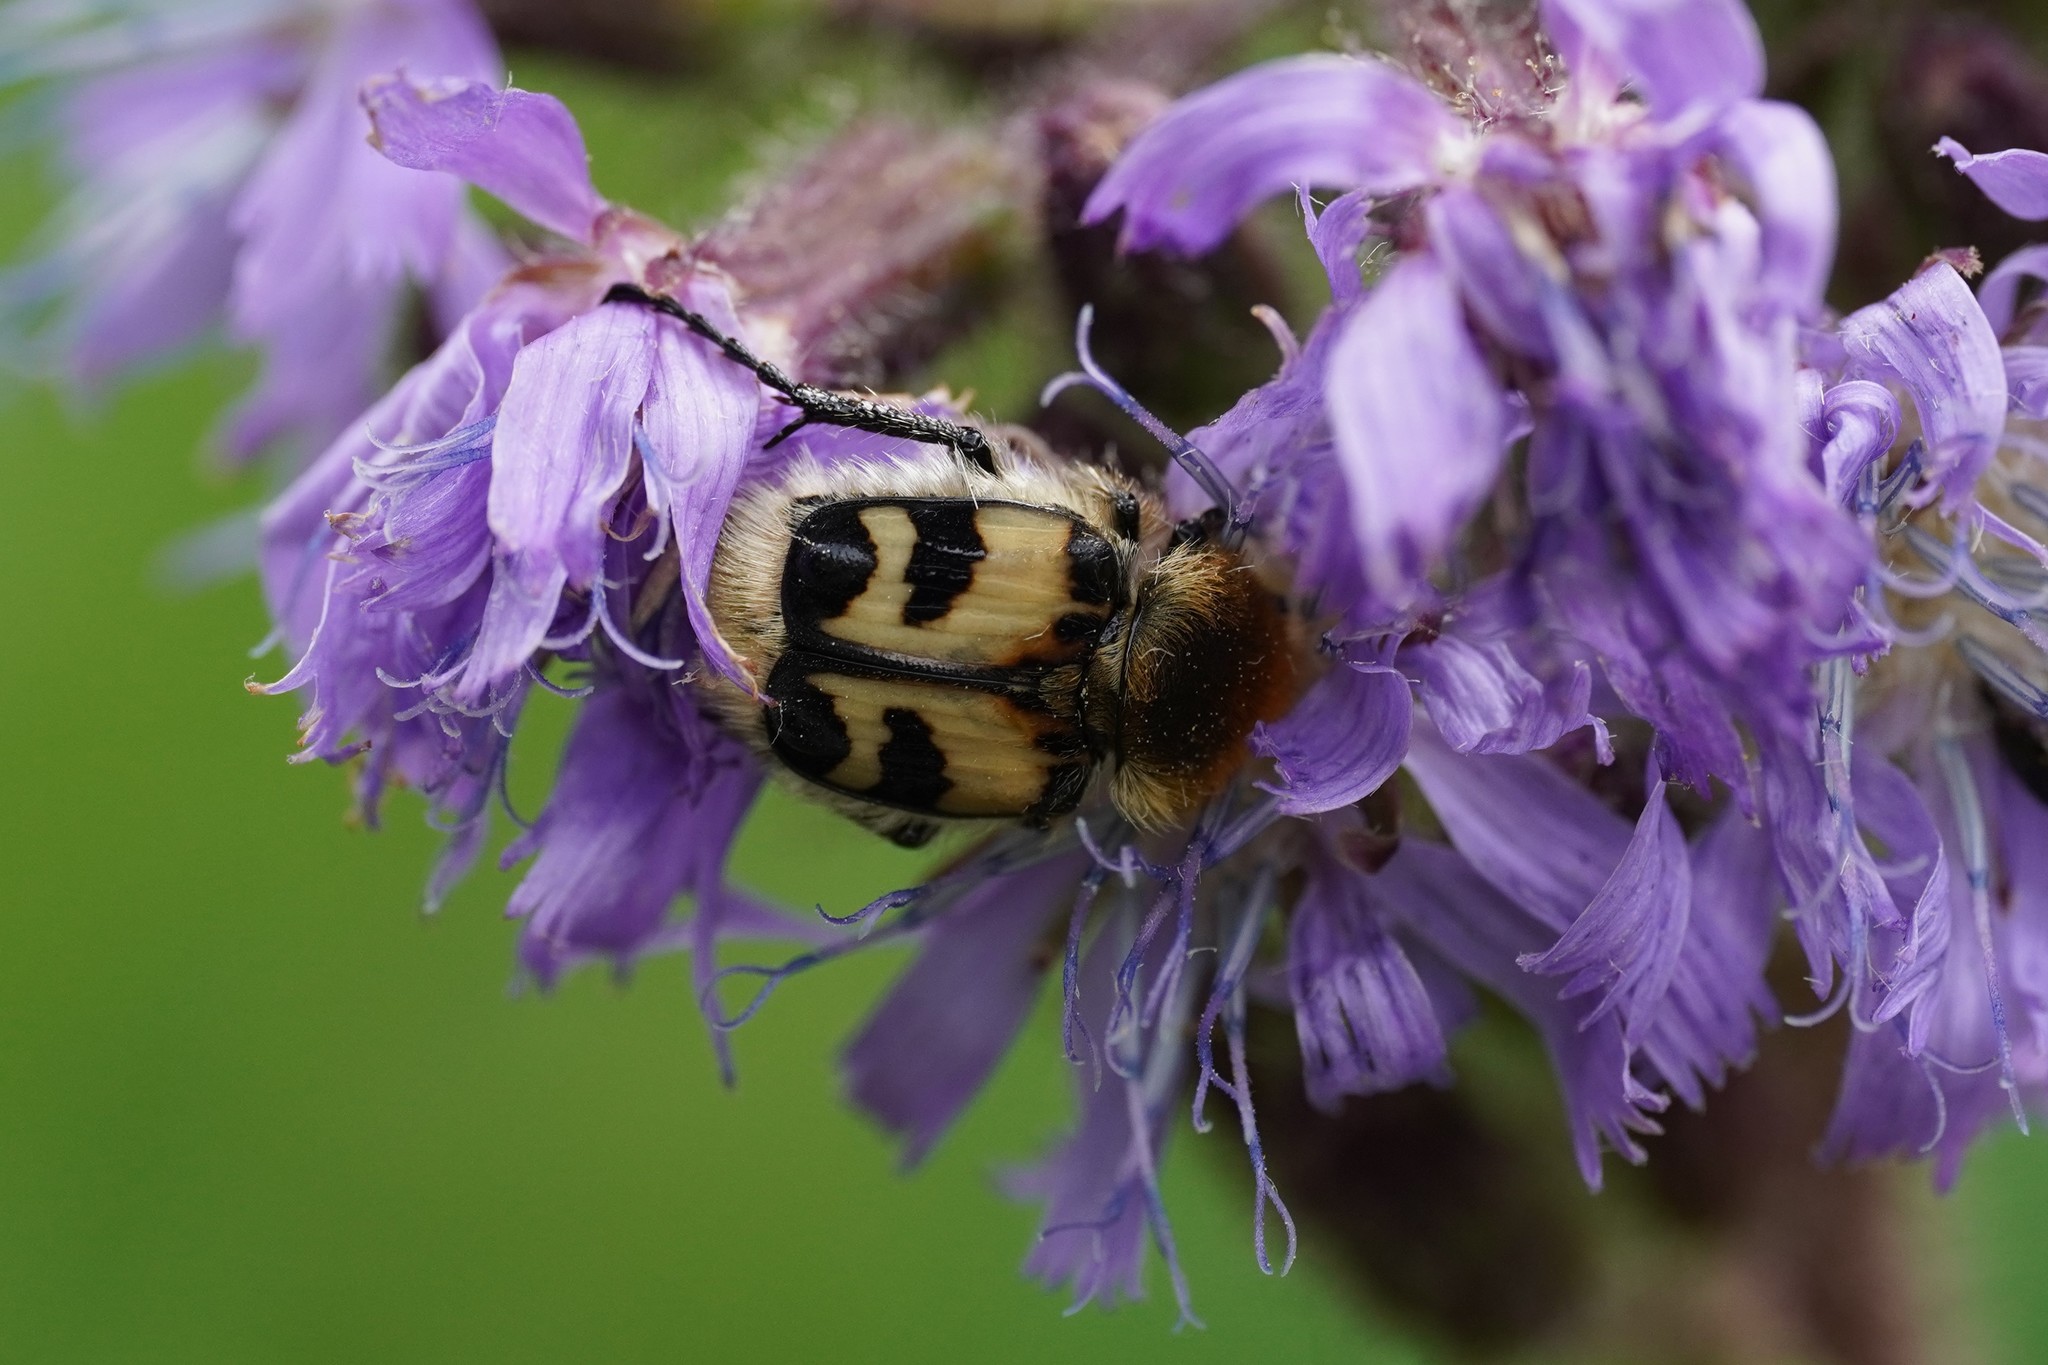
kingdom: Animalia
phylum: Arthropoda
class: Insecta
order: Coleoptera
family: Scarabaeidae
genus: Trichius
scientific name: Trichius fasciatus
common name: Bee beetle
